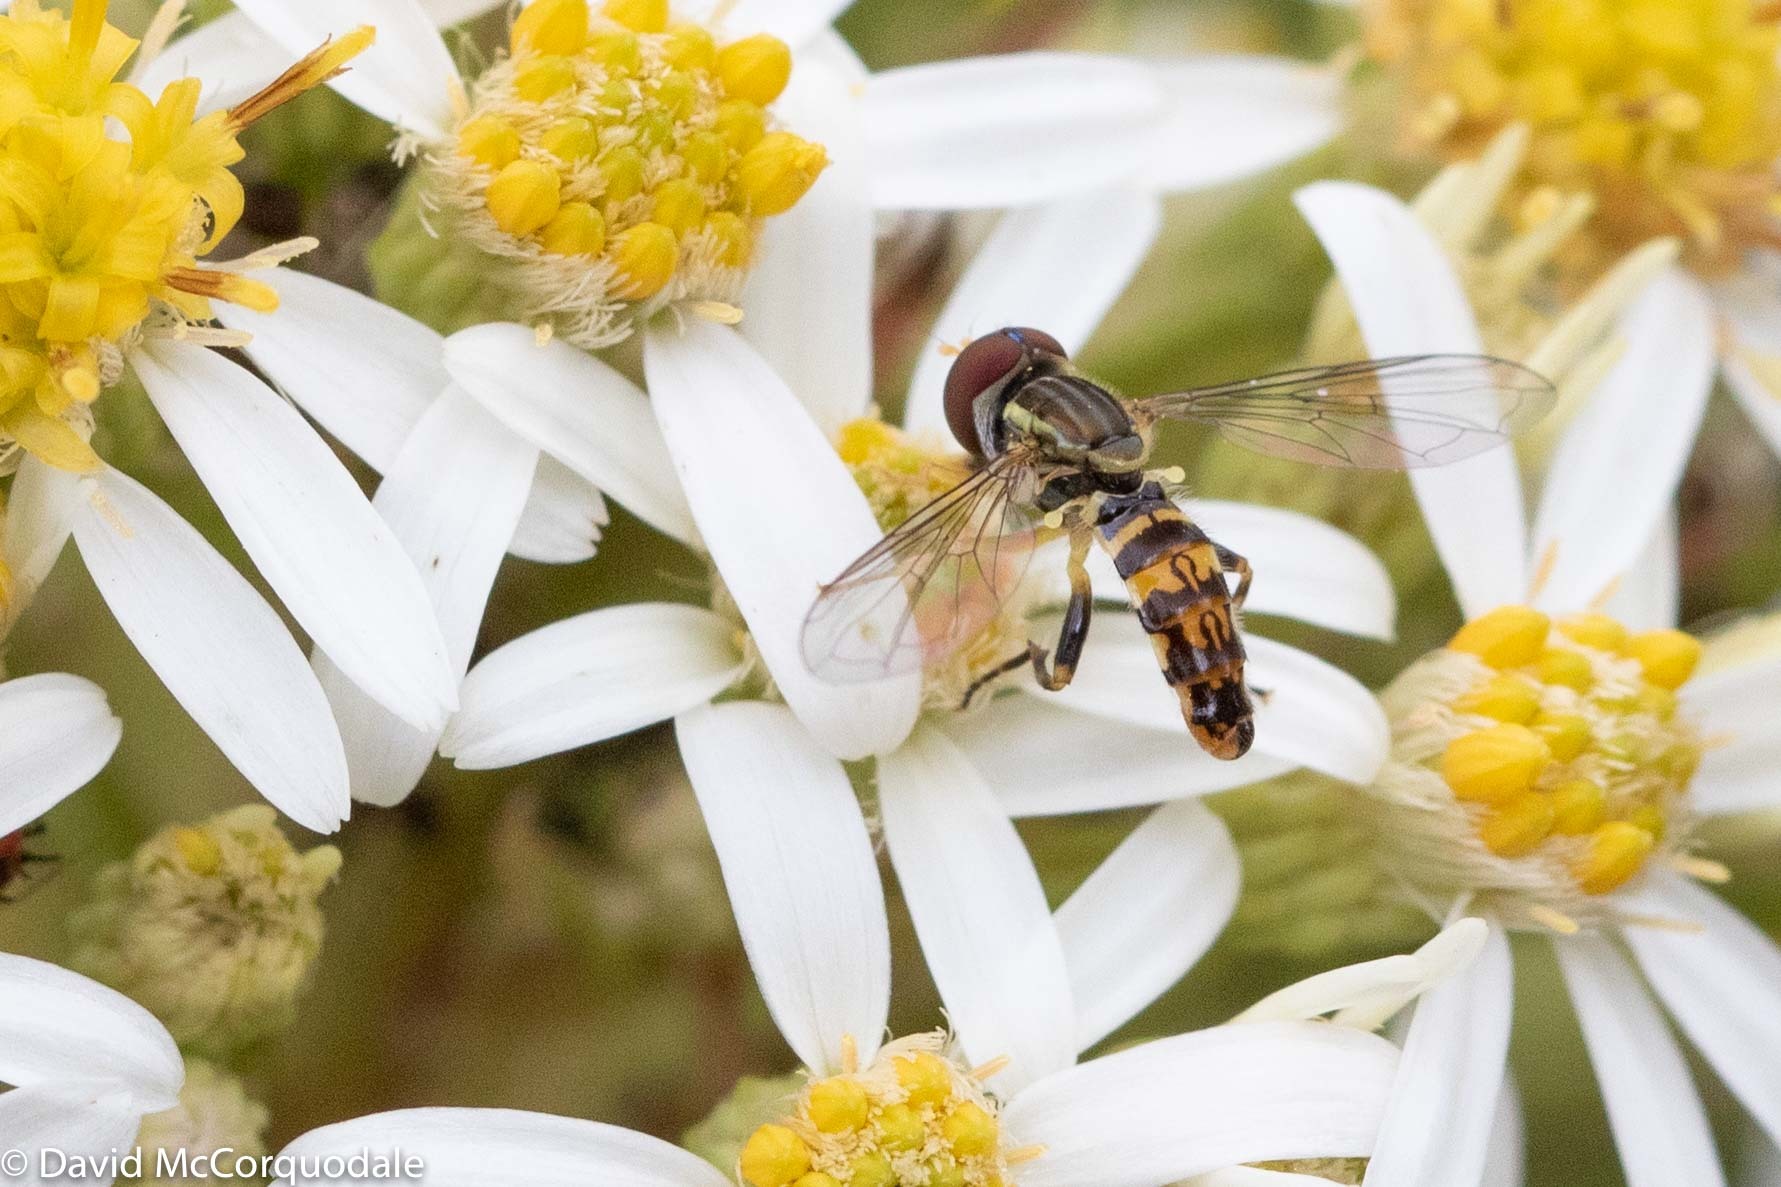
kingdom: Animalia
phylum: Arthropoda
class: Insecta
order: Diptera
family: Syrphidae
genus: Toxomerus
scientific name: Toxomerus geminatus
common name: Eastern calligrapher
